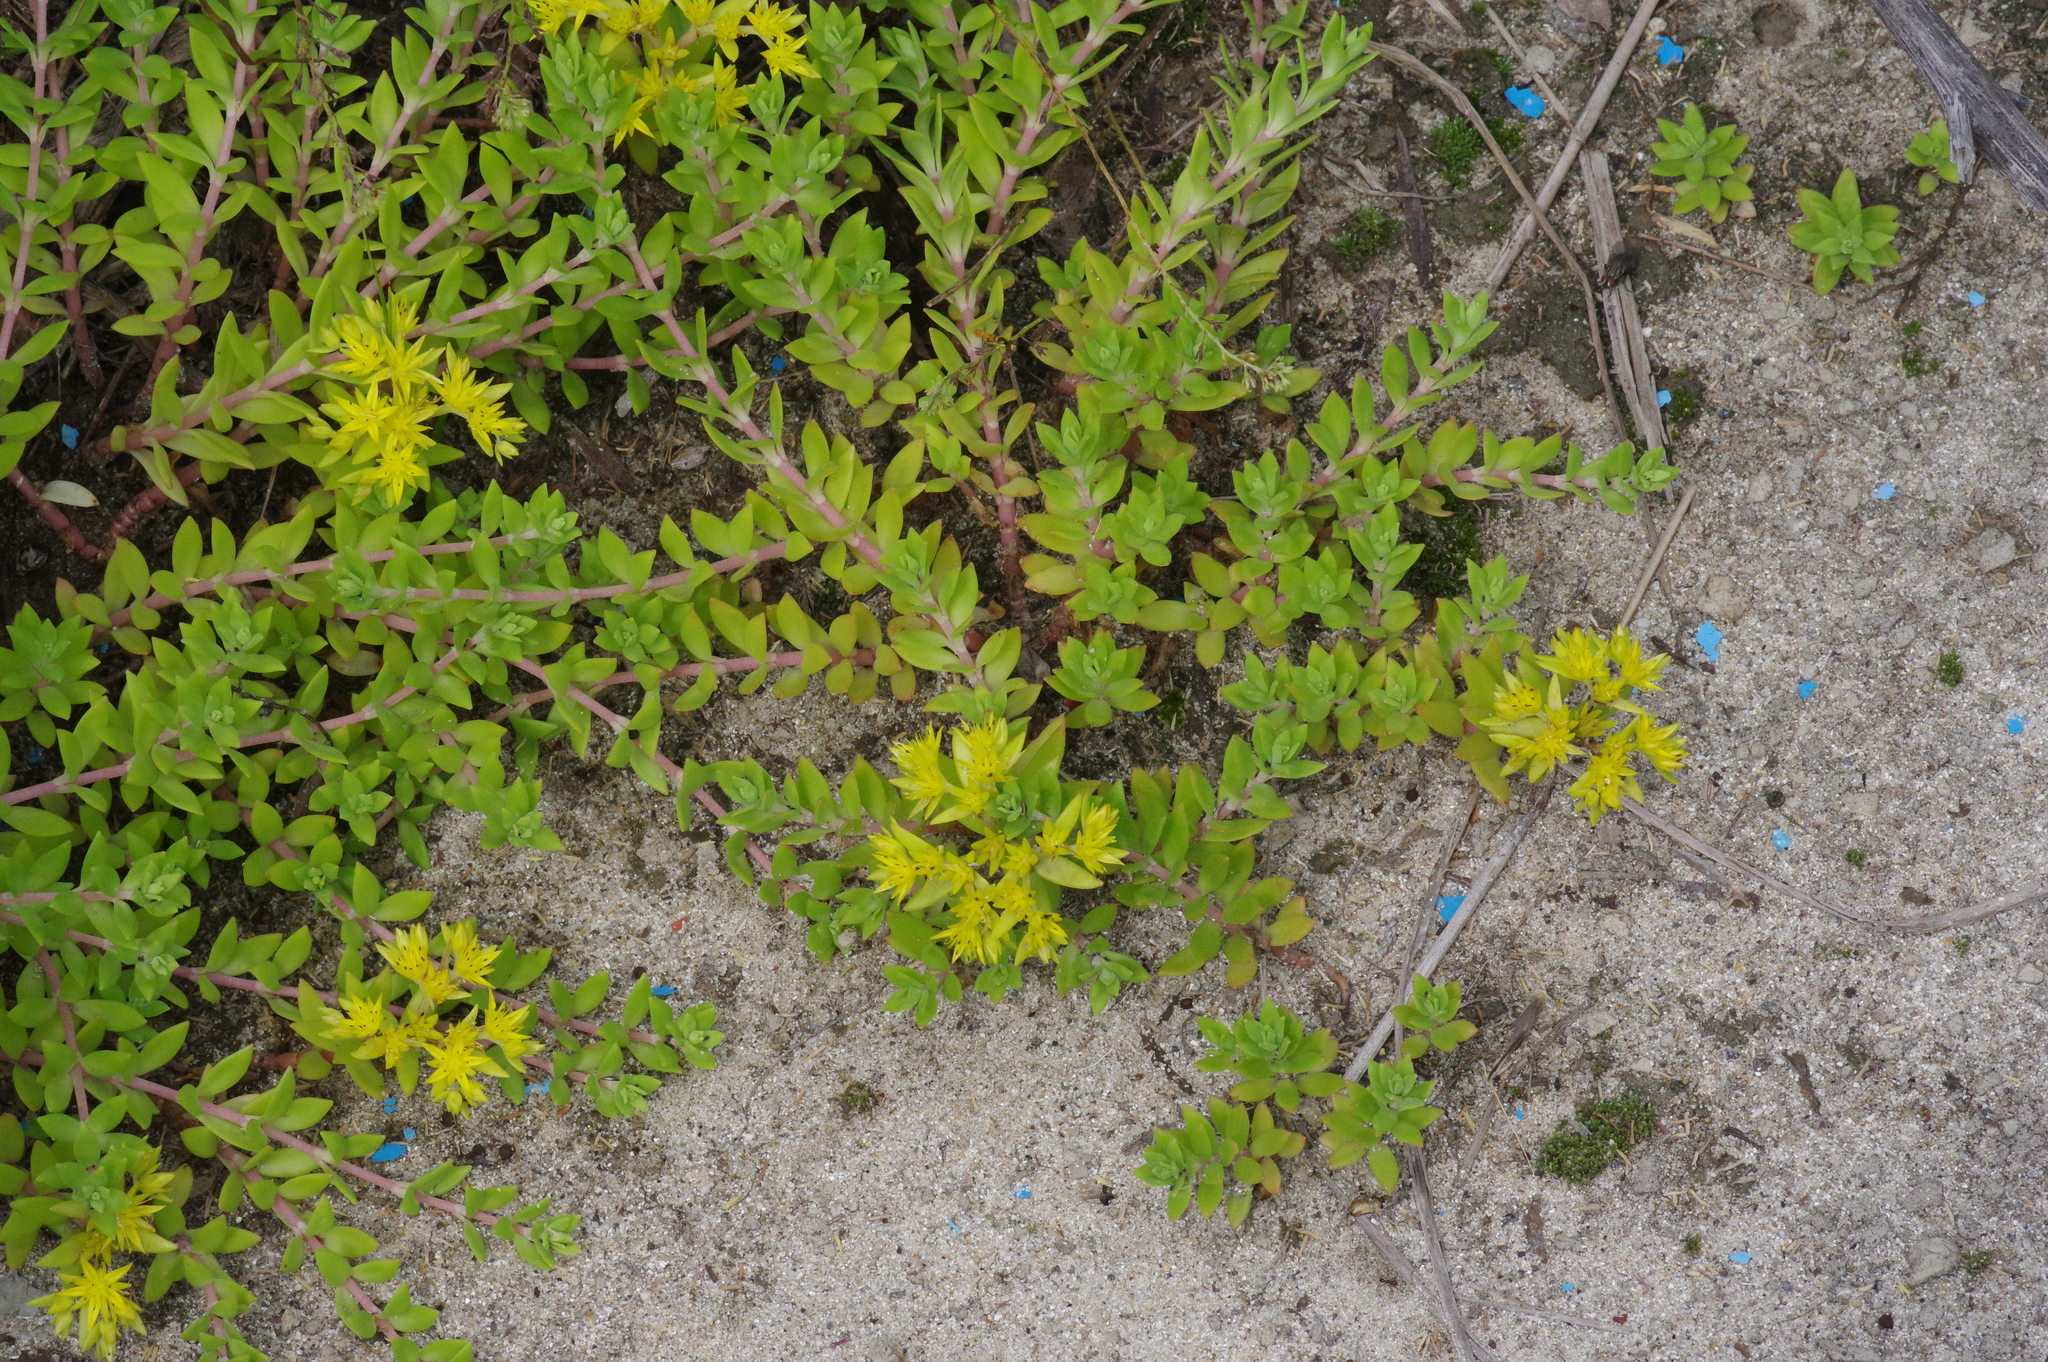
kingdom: Plantae
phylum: Tracheophyta
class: Magnoliopsida
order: Saxifragales
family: Crassulaceae
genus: Sedum
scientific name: Sedum sarmentosum
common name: Stringy stonecrop
